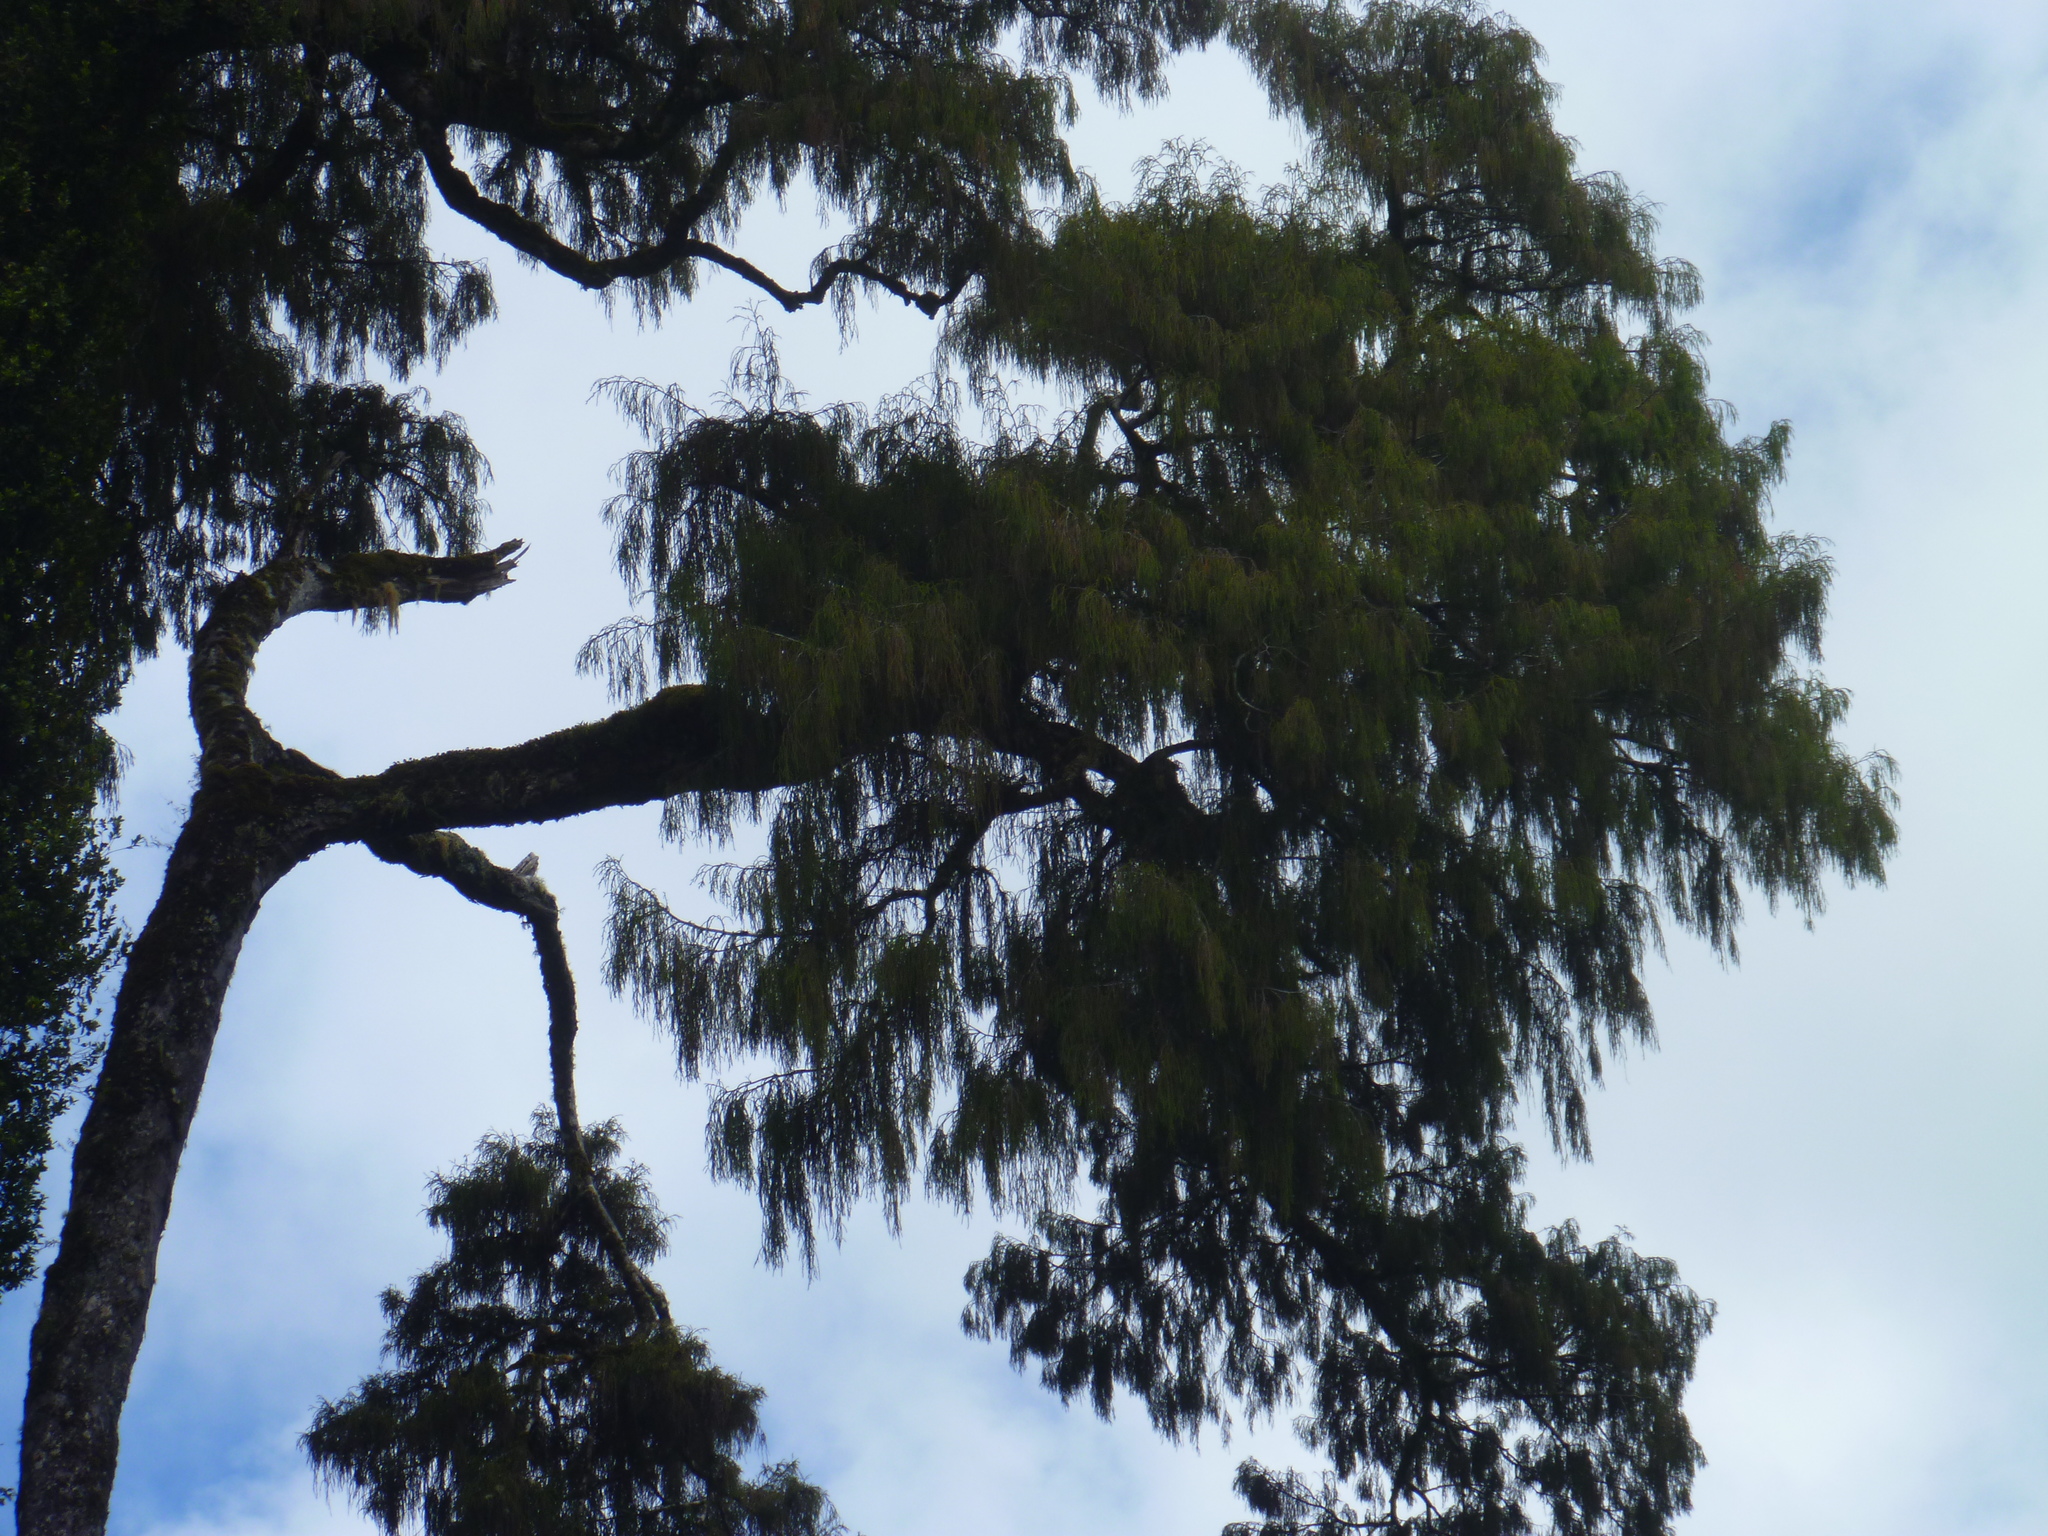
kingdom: Plantae
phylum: Tracheophyta
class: Pinopsida
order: Pinales
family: Podocarpaceae
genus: Dacrydium
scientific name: Dacrydium cupressinum
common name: Red pine
